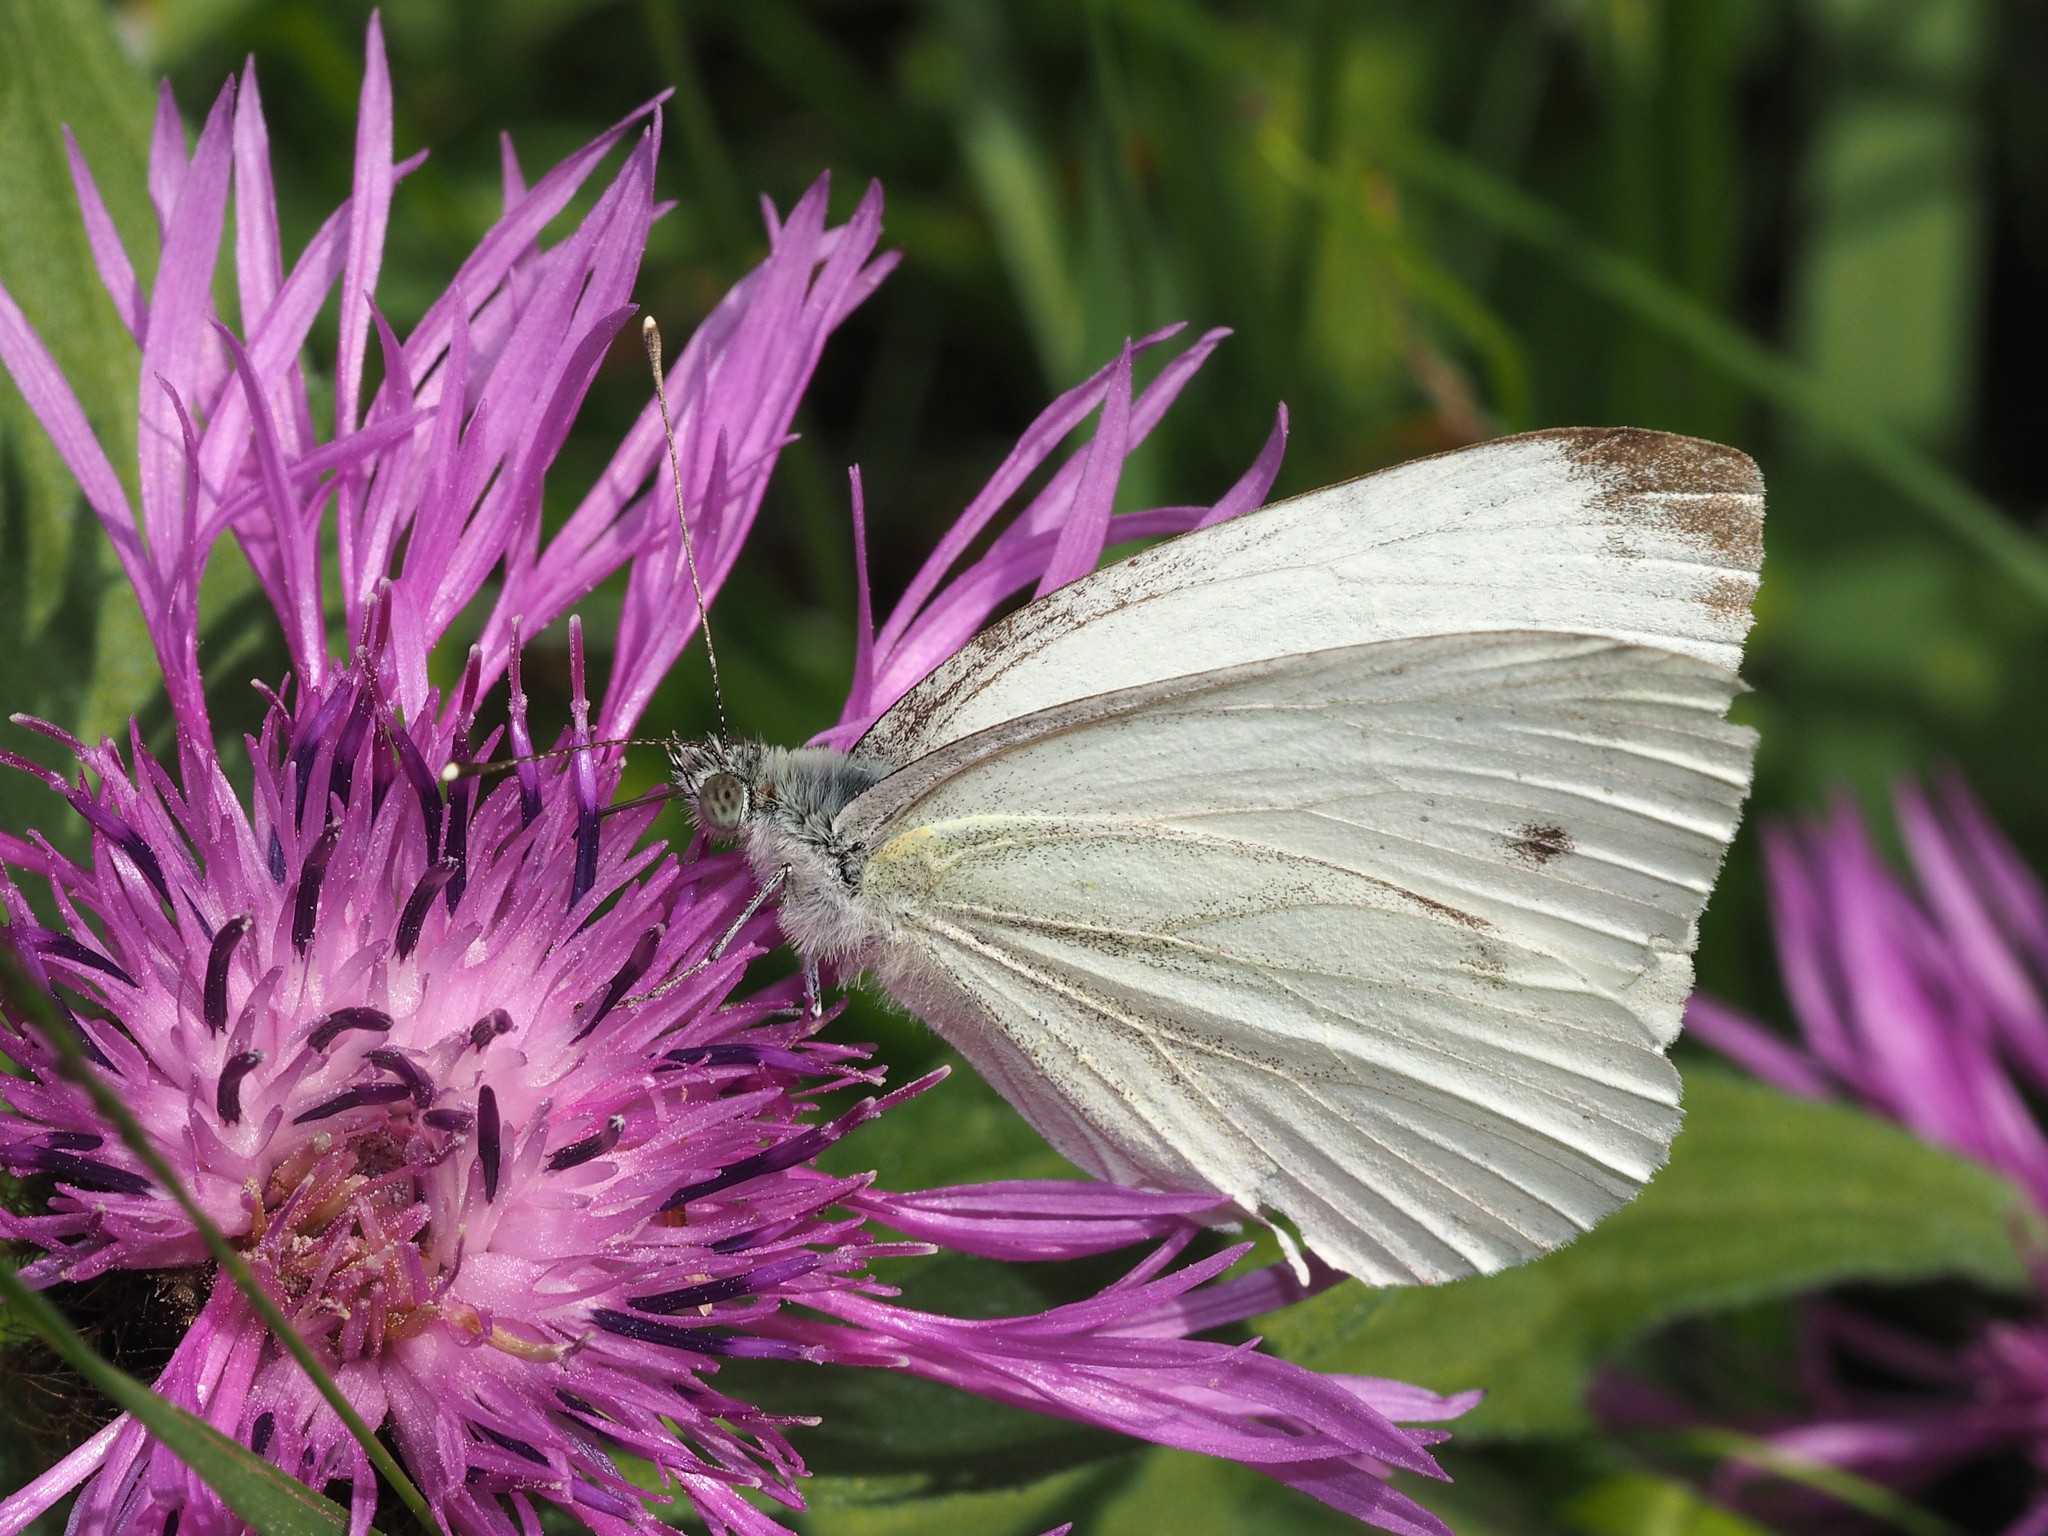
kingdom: Animalia
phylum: Arthropoda
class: Insecta
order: Lepidoptera
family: Pieridae
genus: Pieris
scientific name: Pieris napi
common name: Green-veined white
